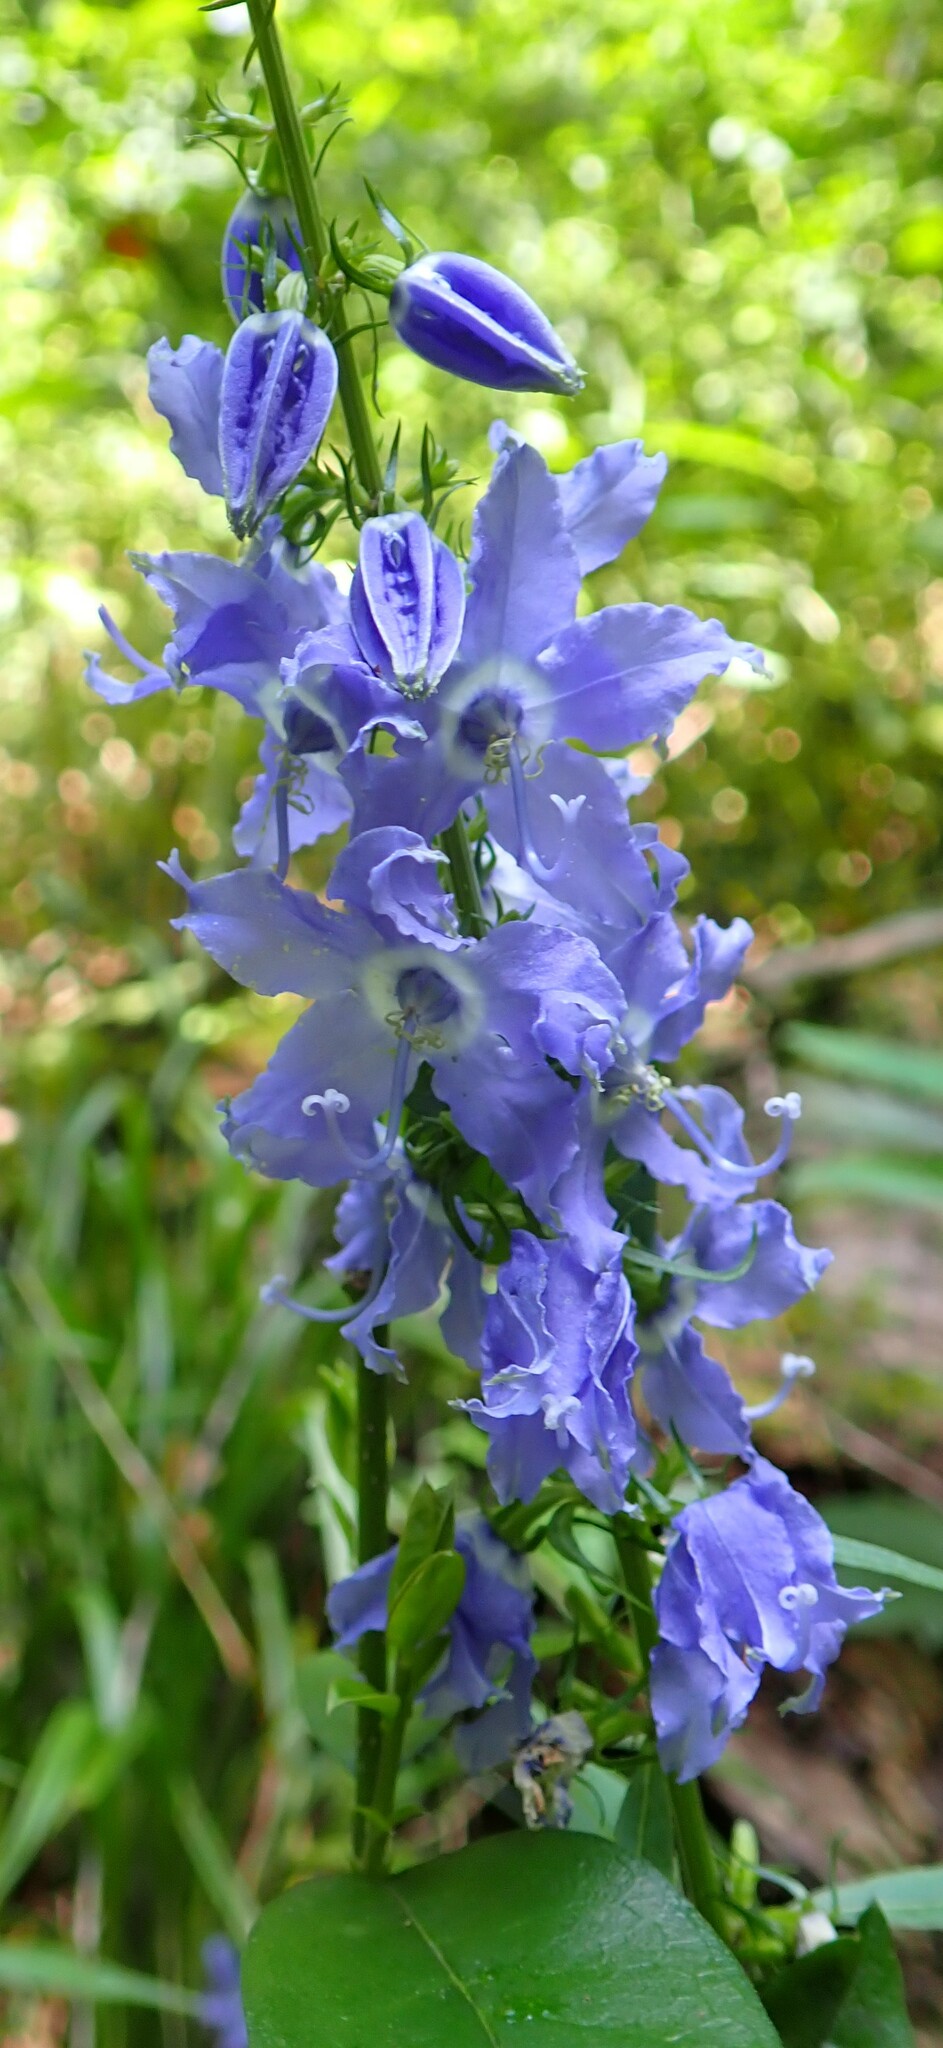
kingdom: Plantae
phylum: Tracheophyta
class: Magnoliopsida
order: Asterales
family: Campanulaceae
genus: Campanulastrum
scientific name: Campanulastrum americanum
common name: American bellflower
